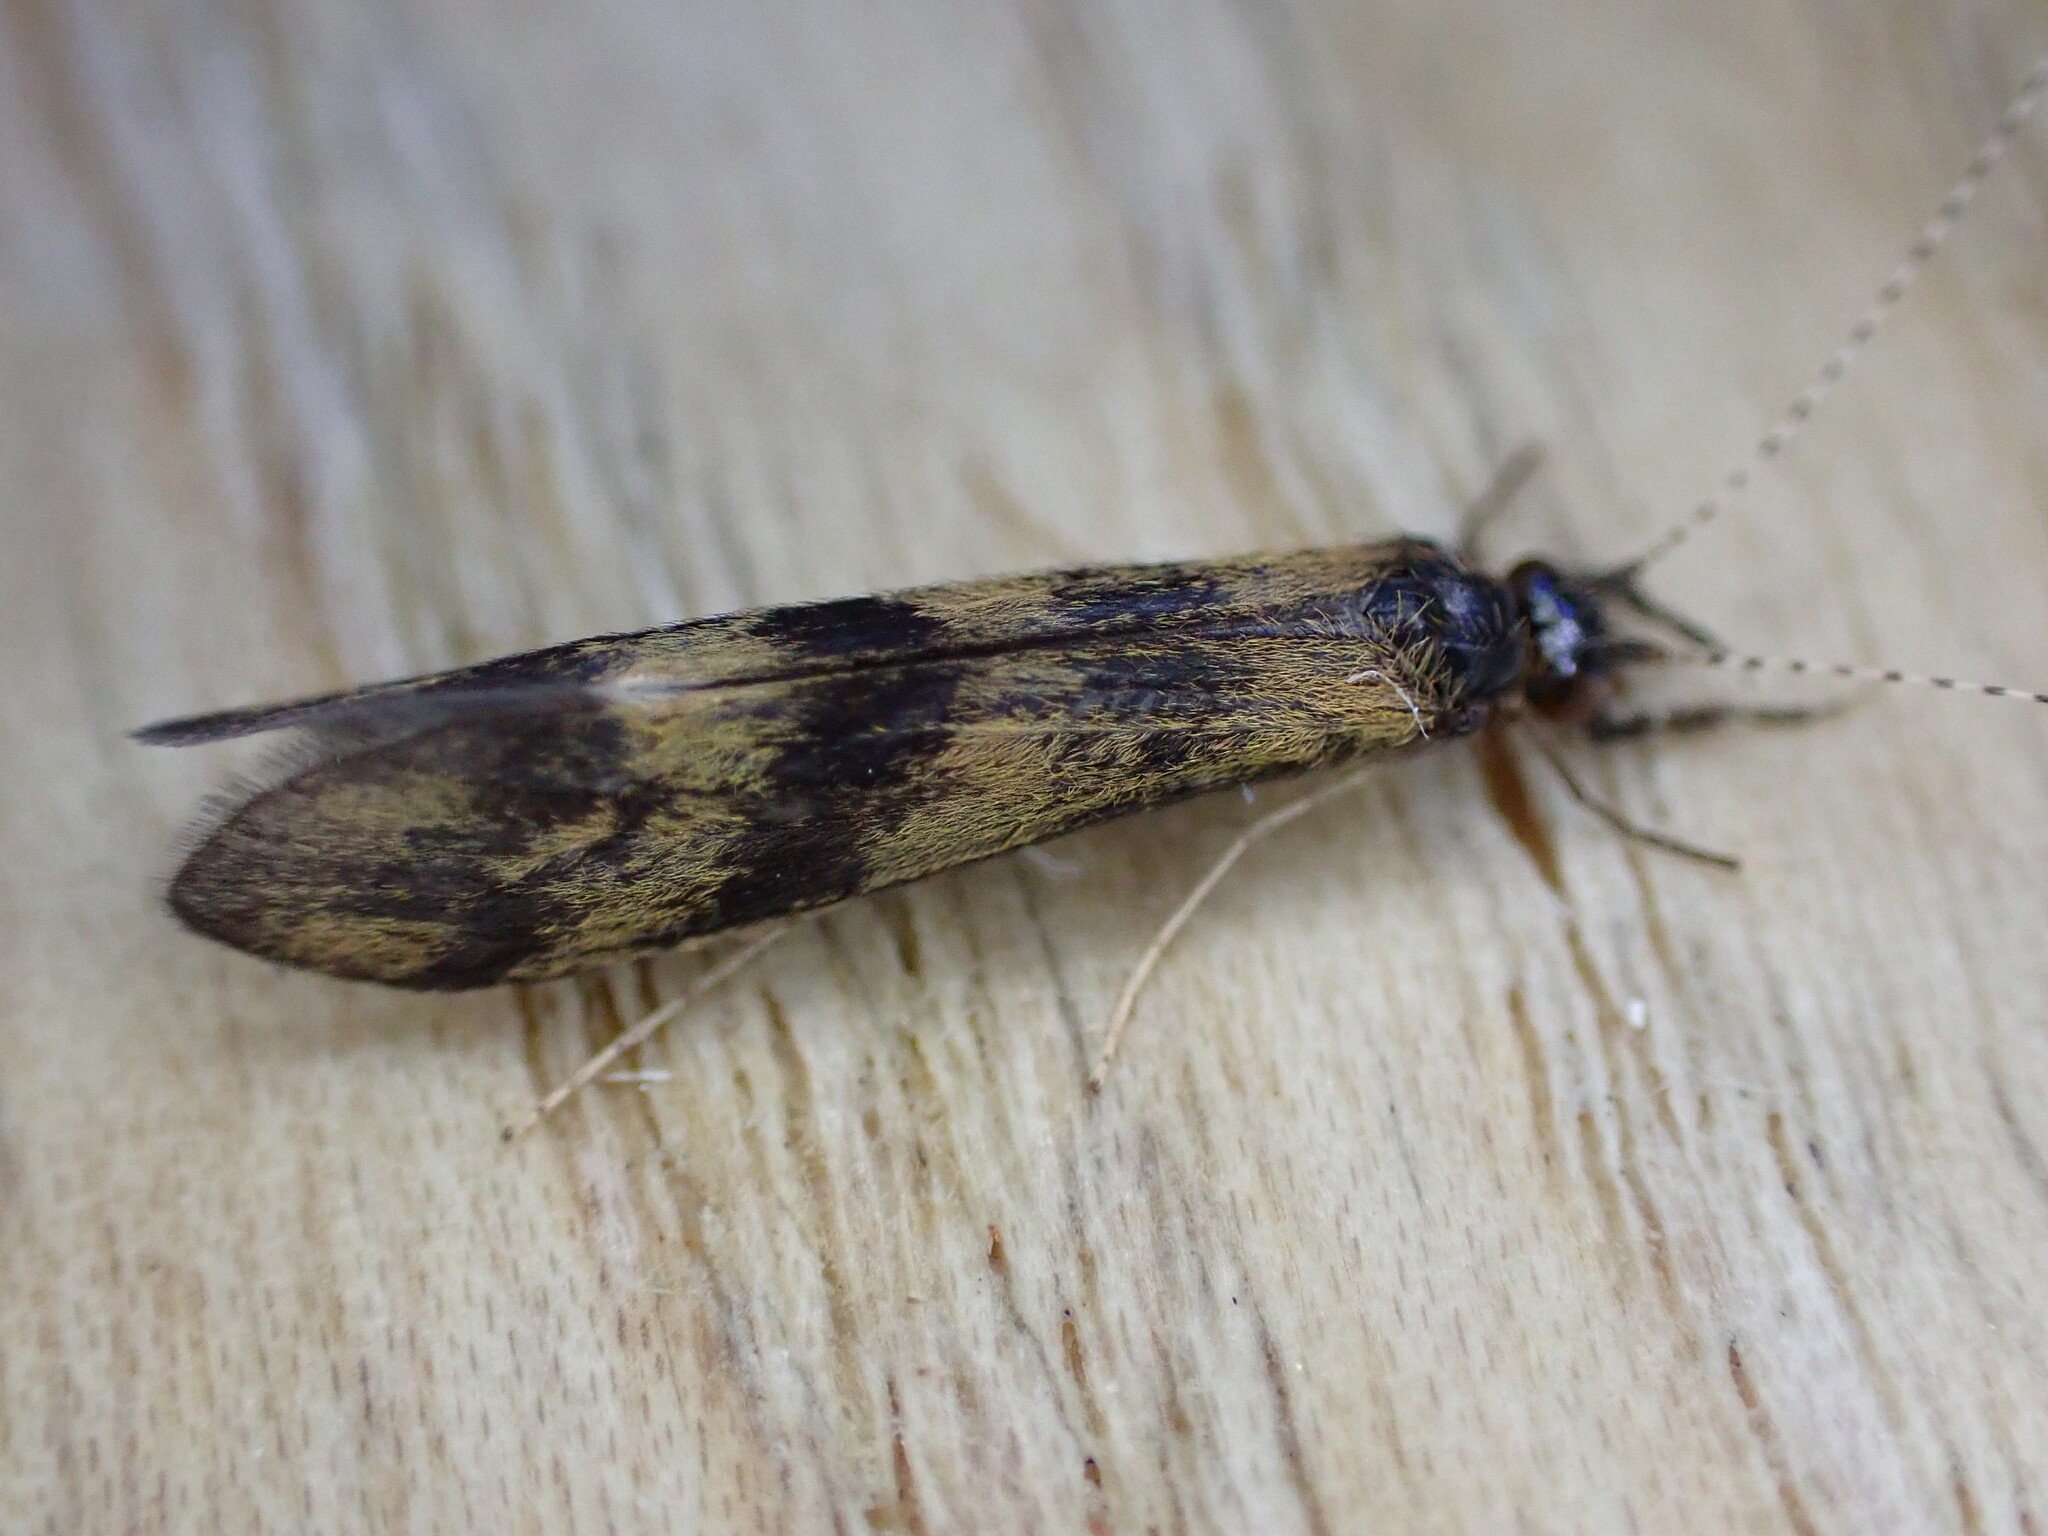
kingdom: Animalia
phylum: Arthropoda
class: Insecta
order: Trichoptera
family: Leptoceridae
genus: Mystacides
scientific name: Mystacides longicornis
